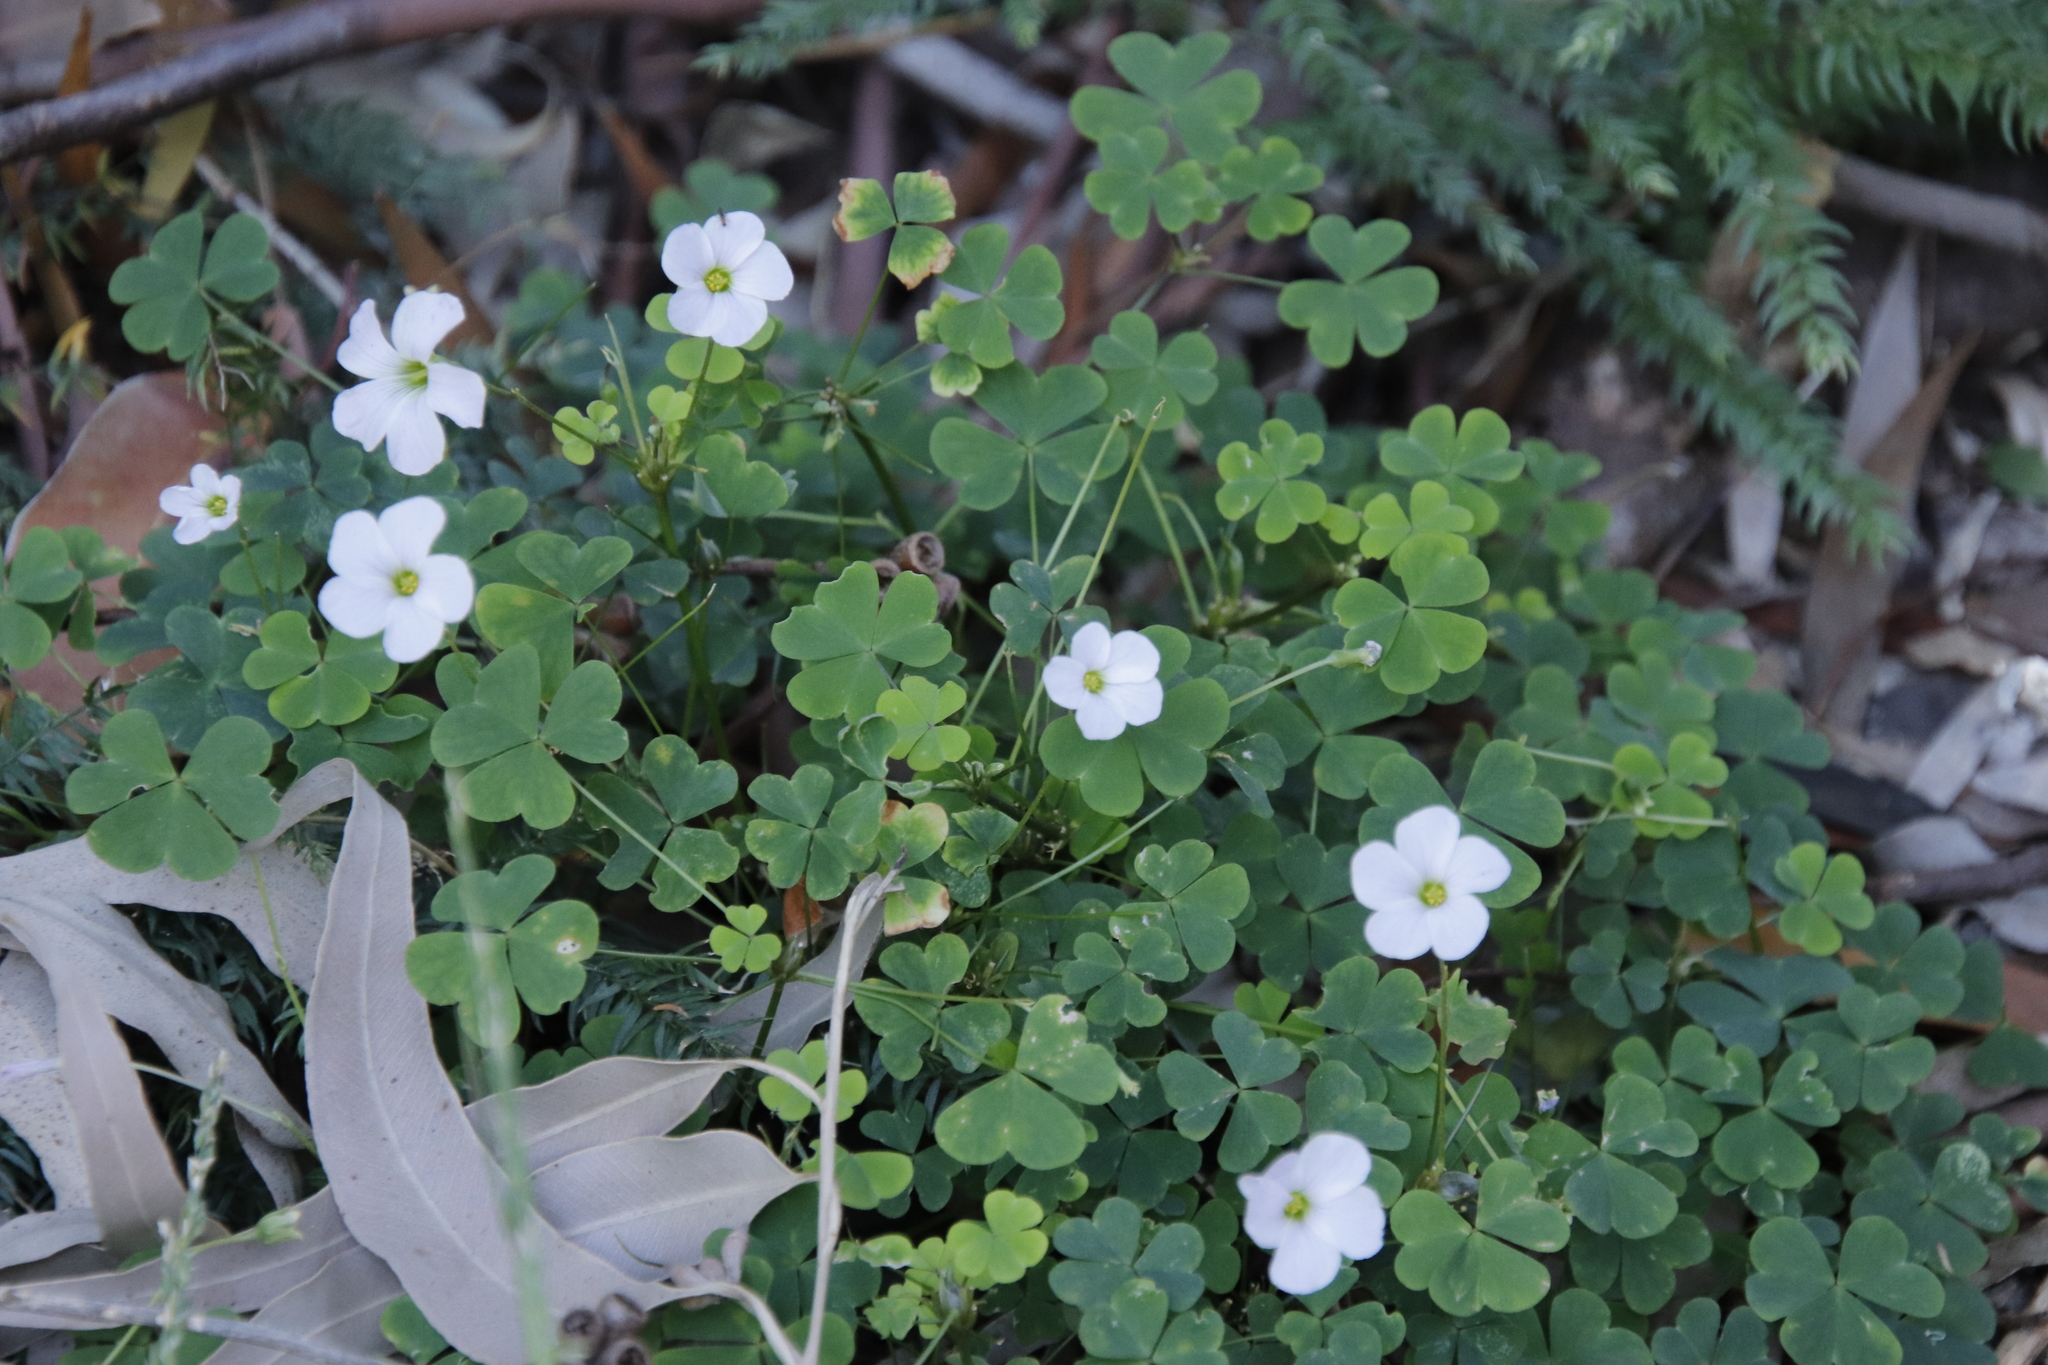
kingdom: Plantae
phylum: Tracheophyta
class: Magnoliopsida
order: Oxalidales
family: Oxalidaceae
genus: Oxalis
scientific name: Oxalis incarnata
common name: Pale pink-sorrel
